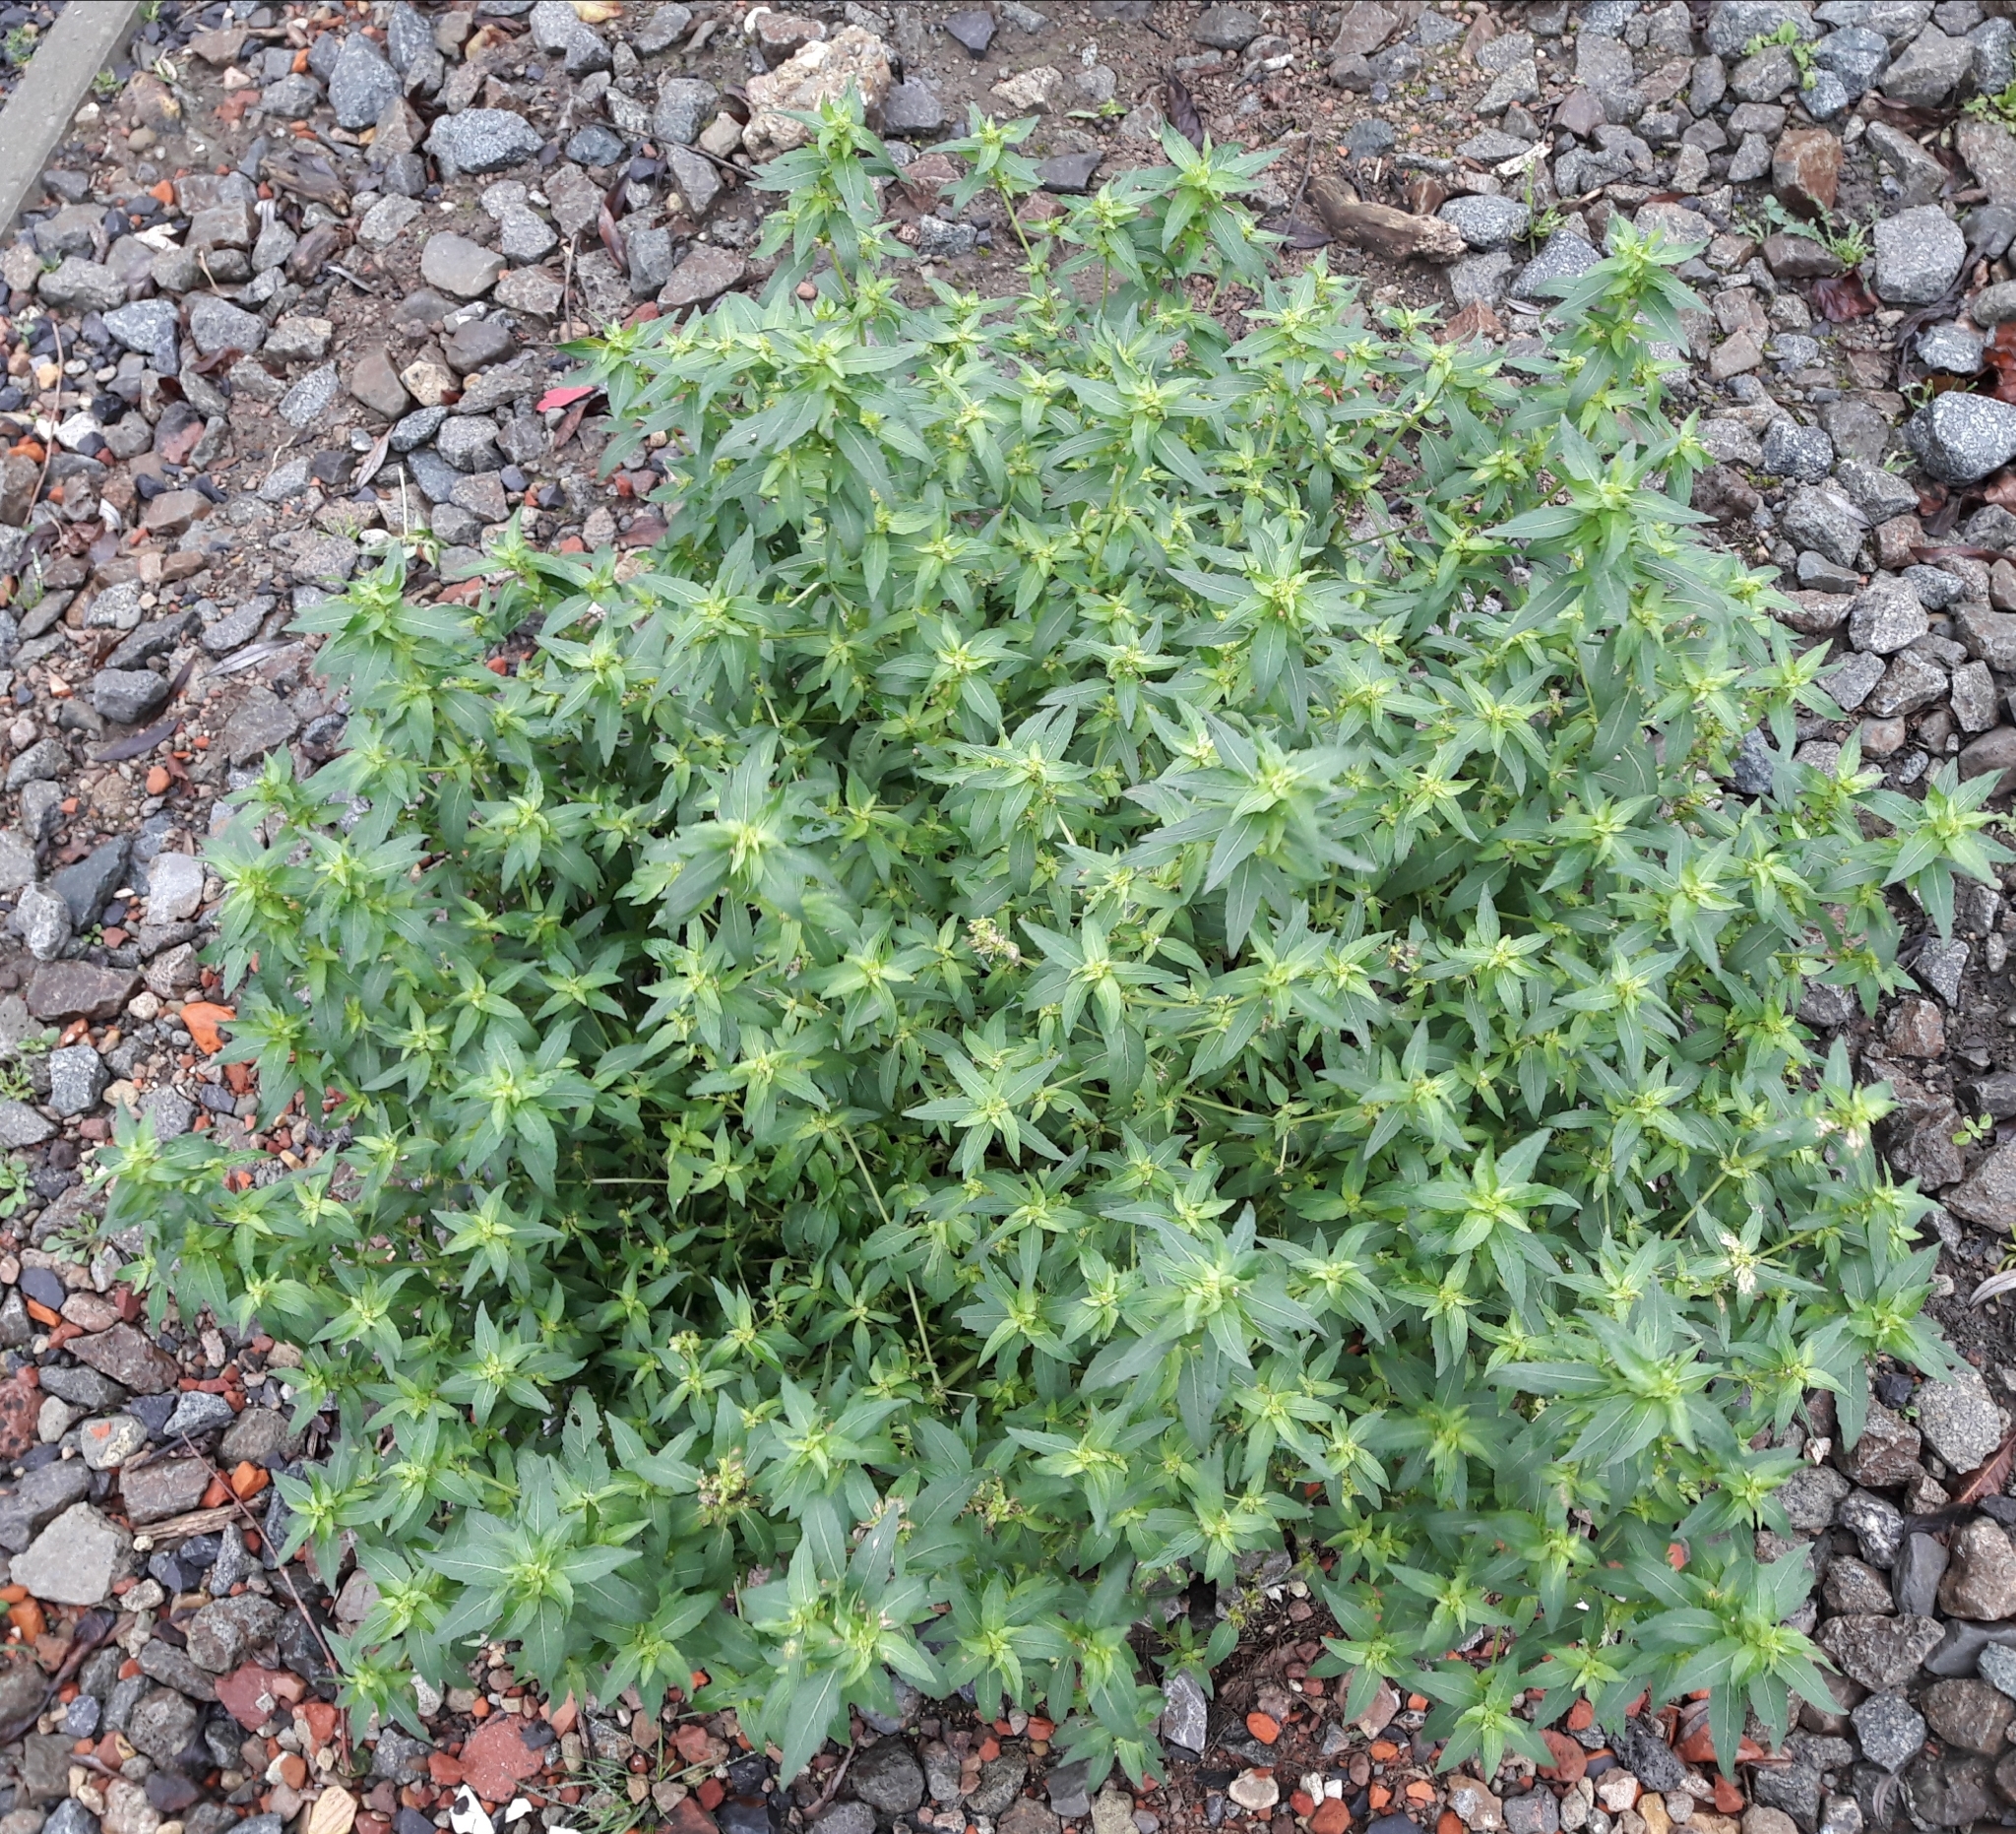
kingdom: Plantae
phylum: Tracheophyta
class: Magnoliopsida
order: Malpighiales
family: Euphorbiaceae
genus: Mercurialis
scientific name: Mercurialis annua
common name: Annual mercury
